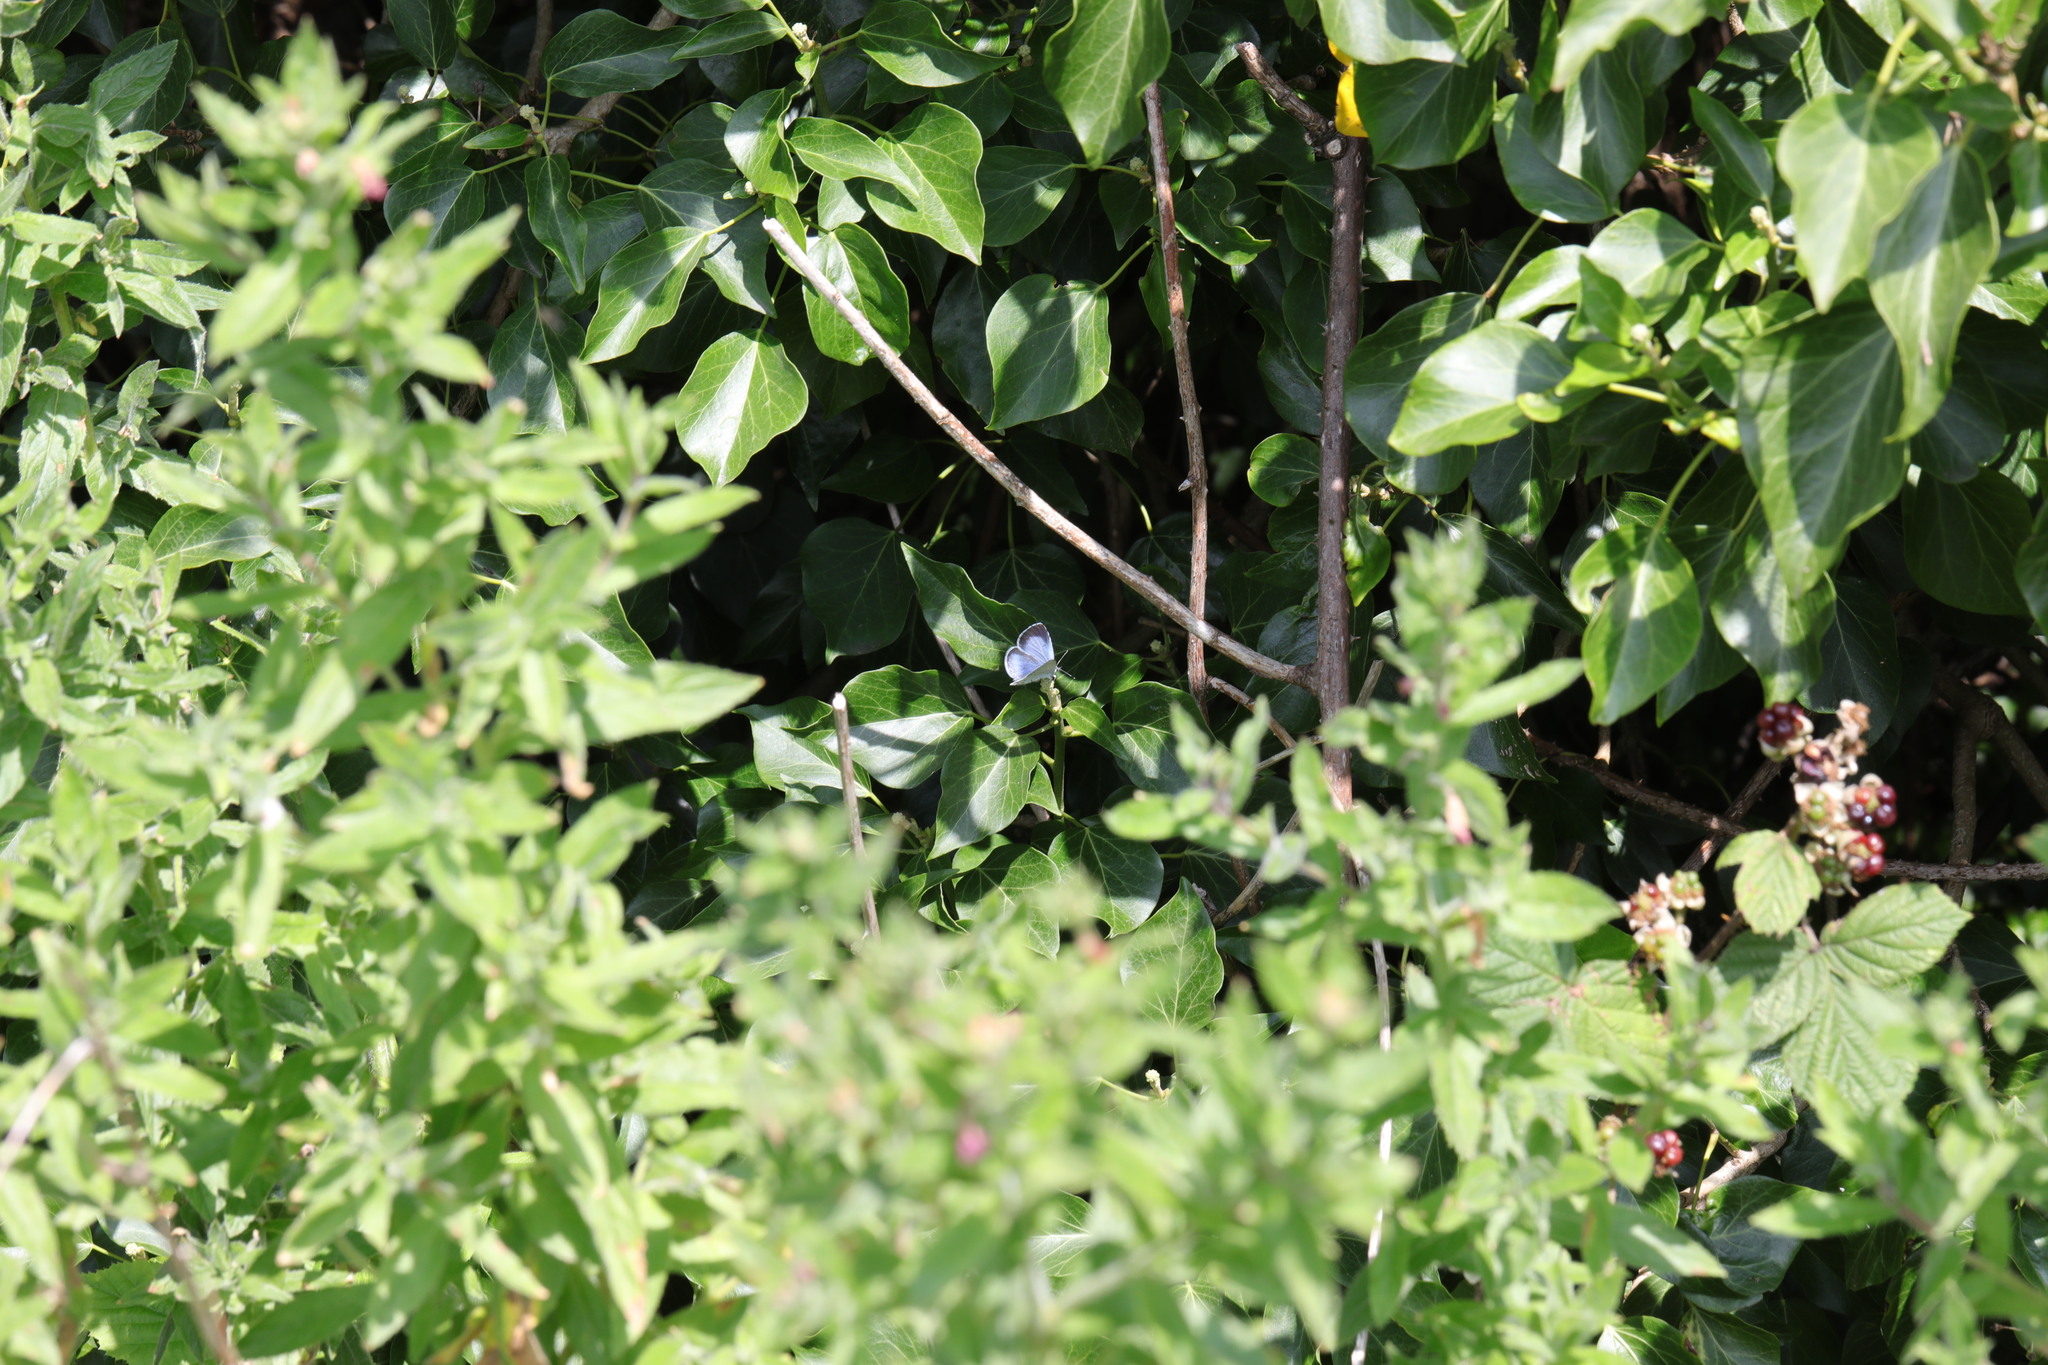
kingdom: Animalia
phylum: Arthropoda
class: Insecta
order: Lepidoptera
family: Lycaenidae
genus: Celastrina
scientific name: Celastrina argiolus
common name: Holly blue
